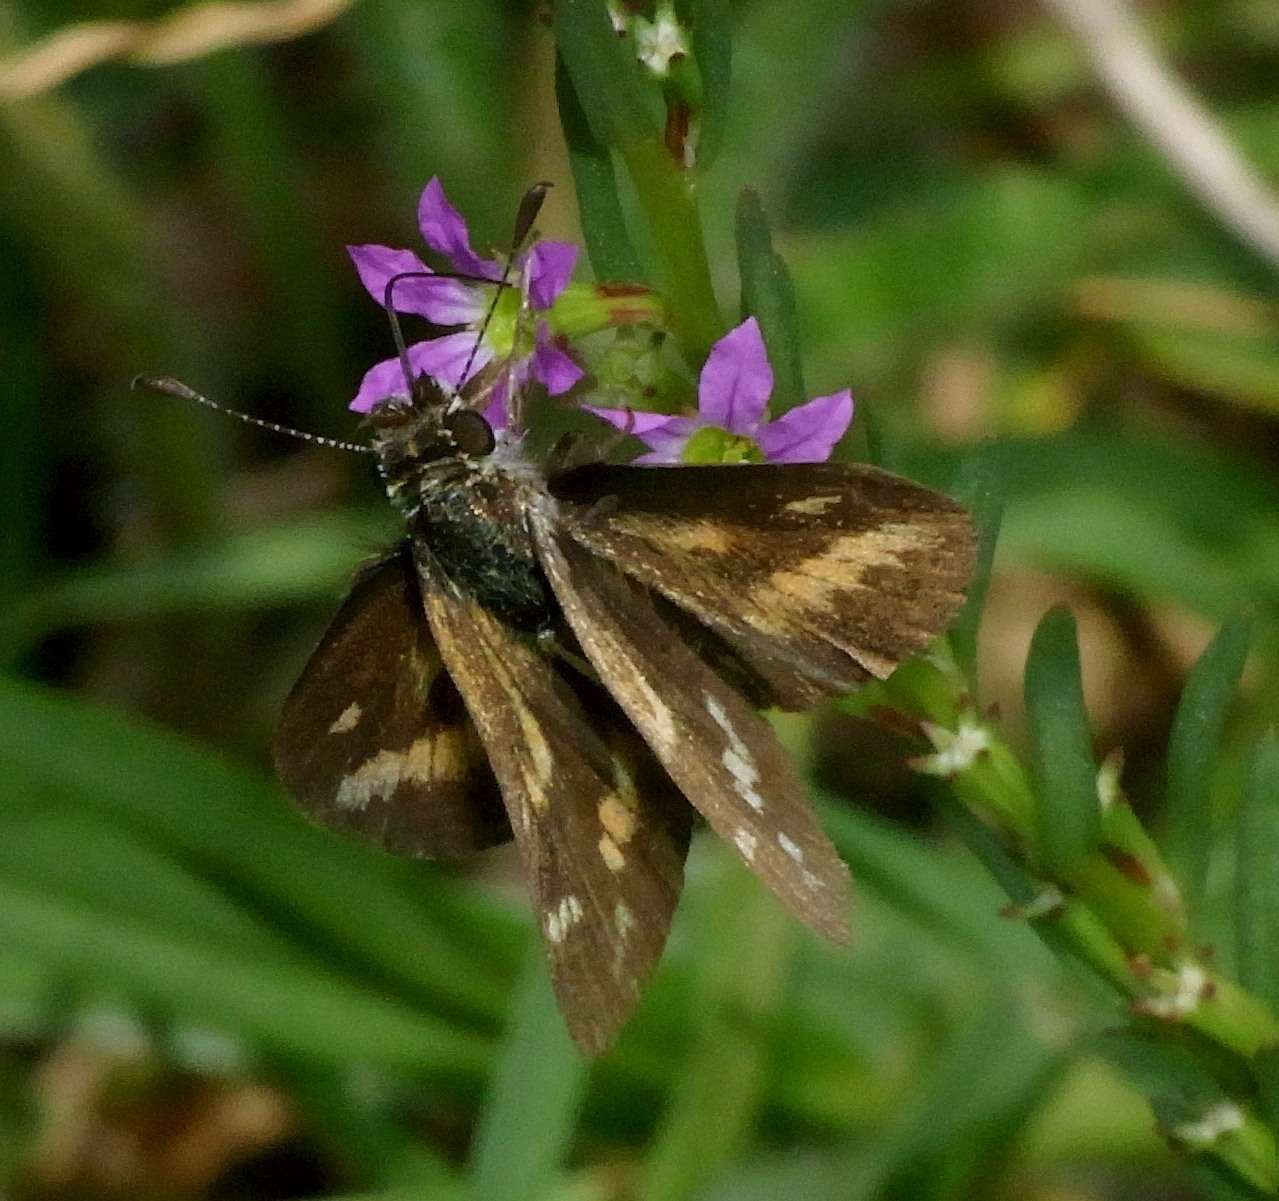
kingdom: Animalia
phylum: Arthropoda
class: Insecta
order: Lepidoptera
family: Hesperiidae
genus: Taractrocera
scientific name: Taractrocera papyria
